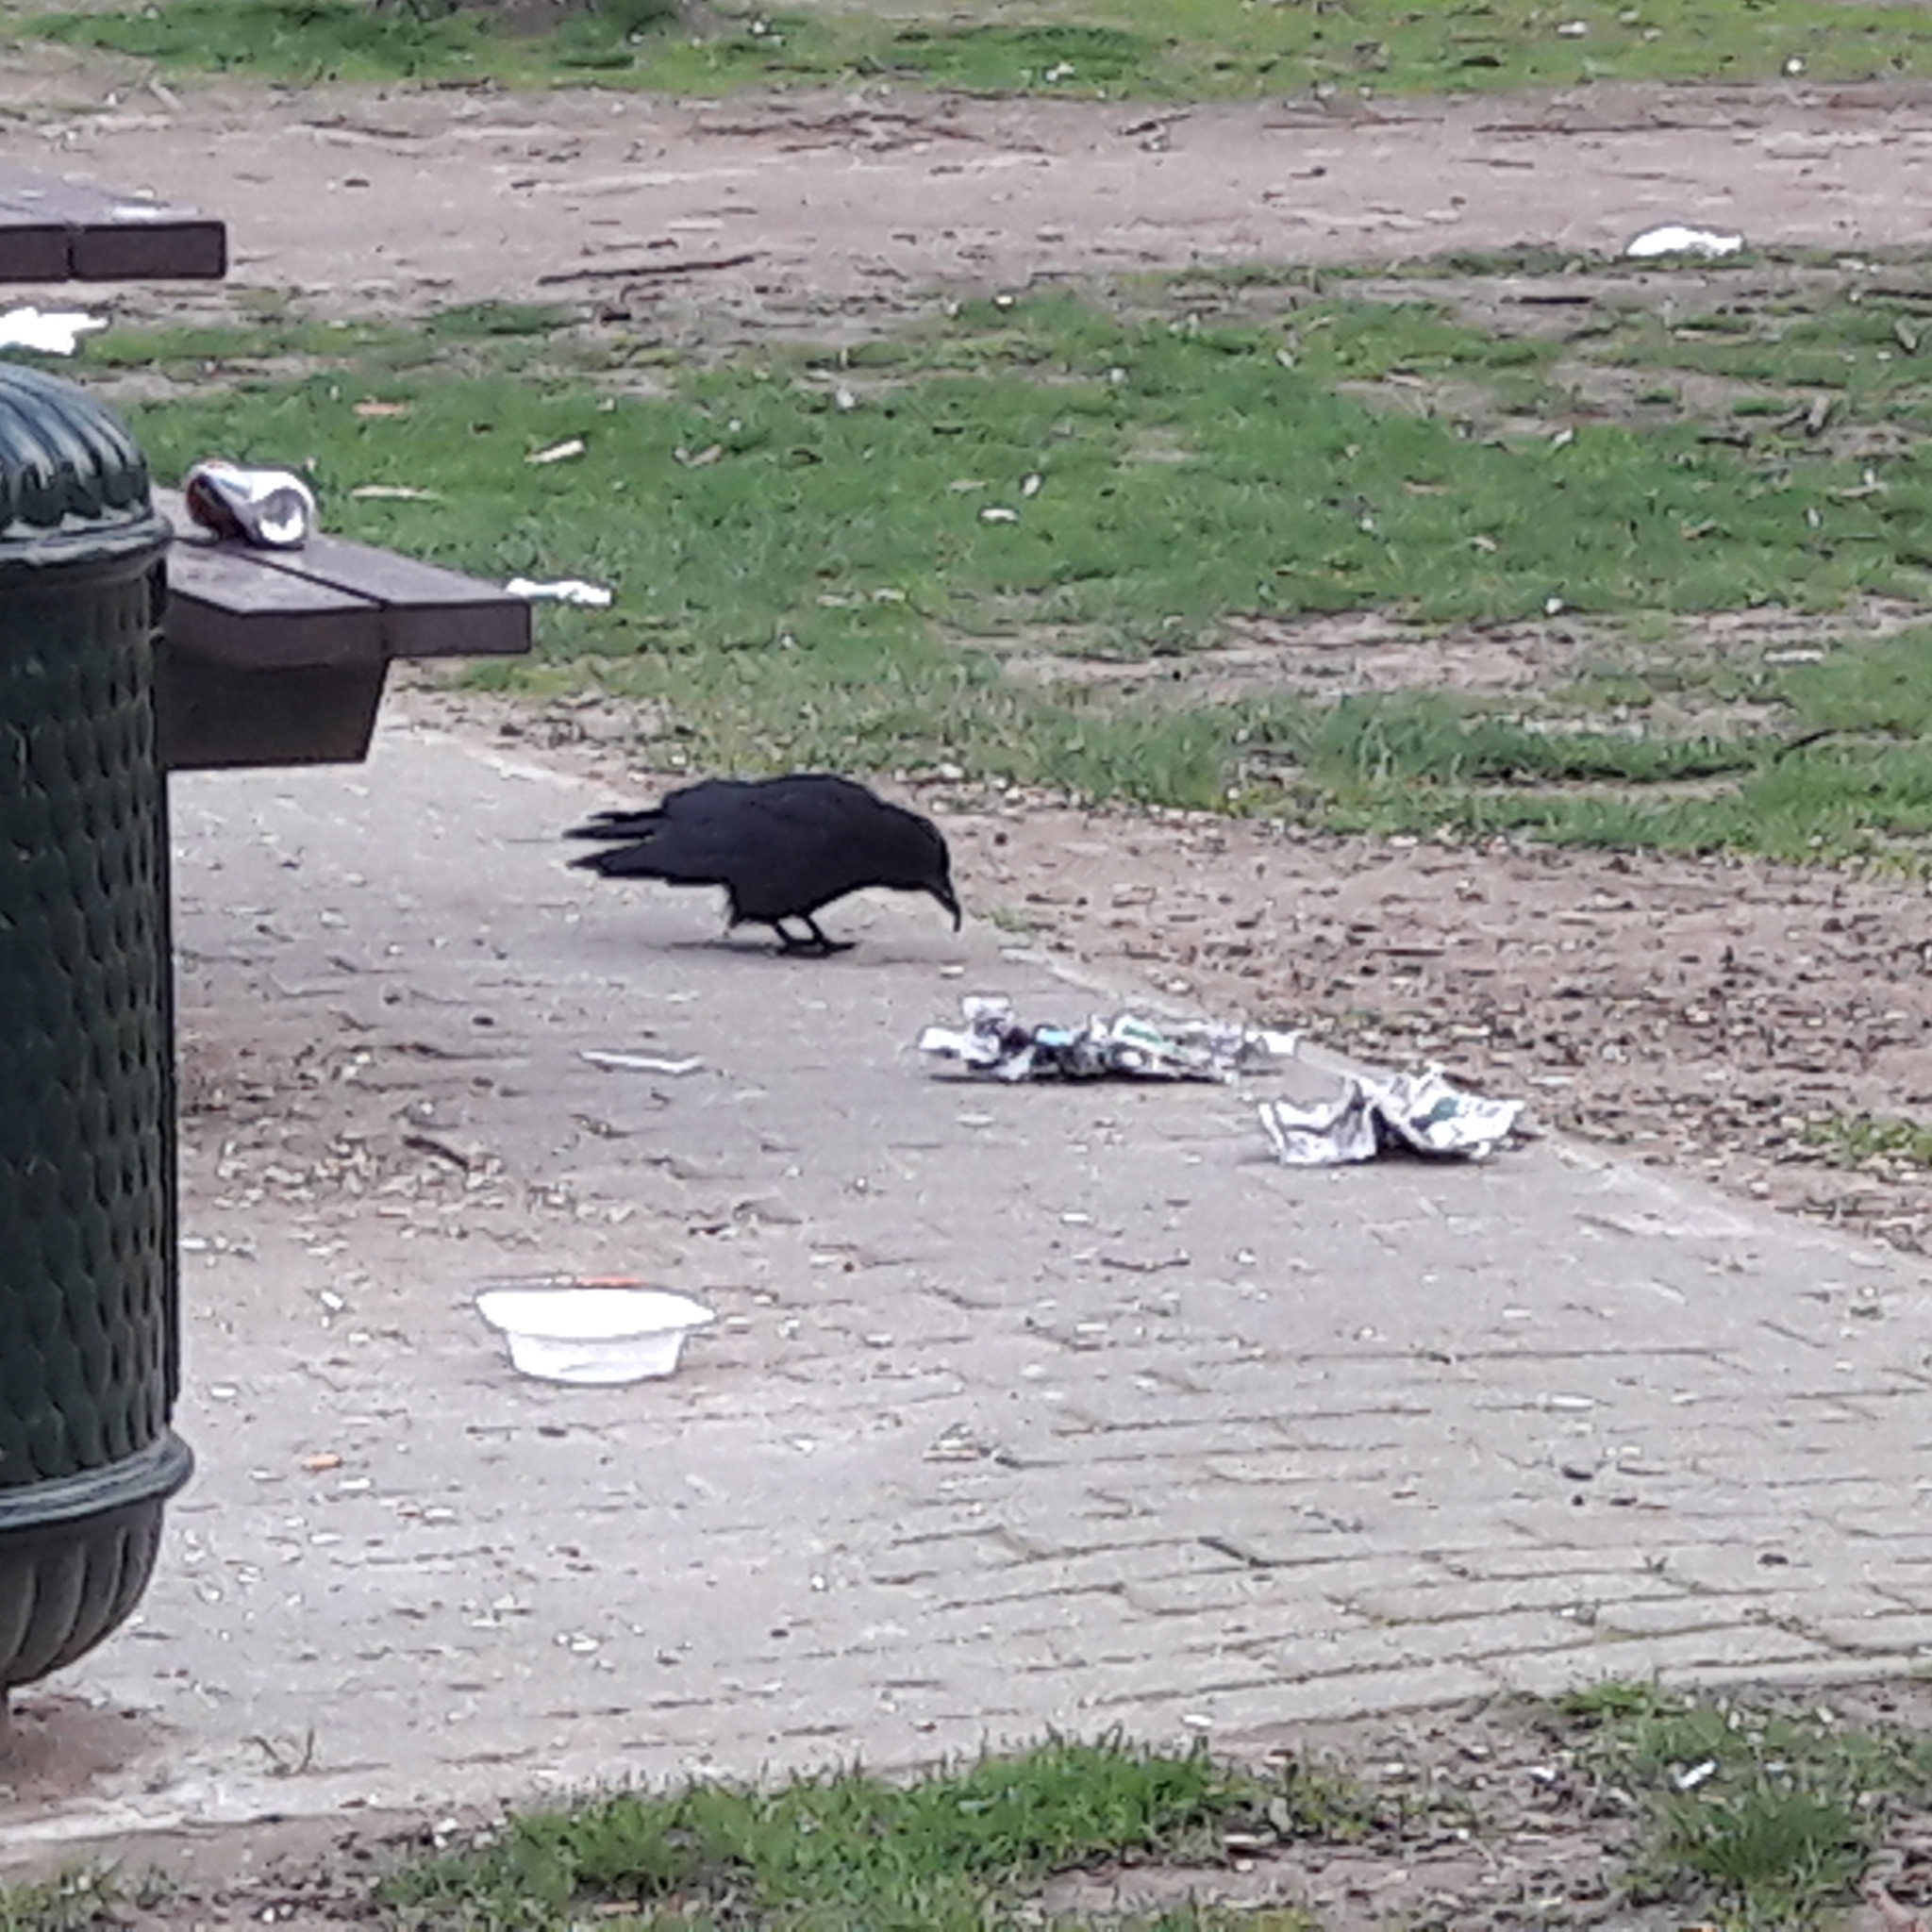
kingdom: Animalia
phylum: Chordata
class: Aves
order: Passeriformes
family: Corvidae
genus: Corvus
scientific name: Corvus corone
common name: Carrion crow
